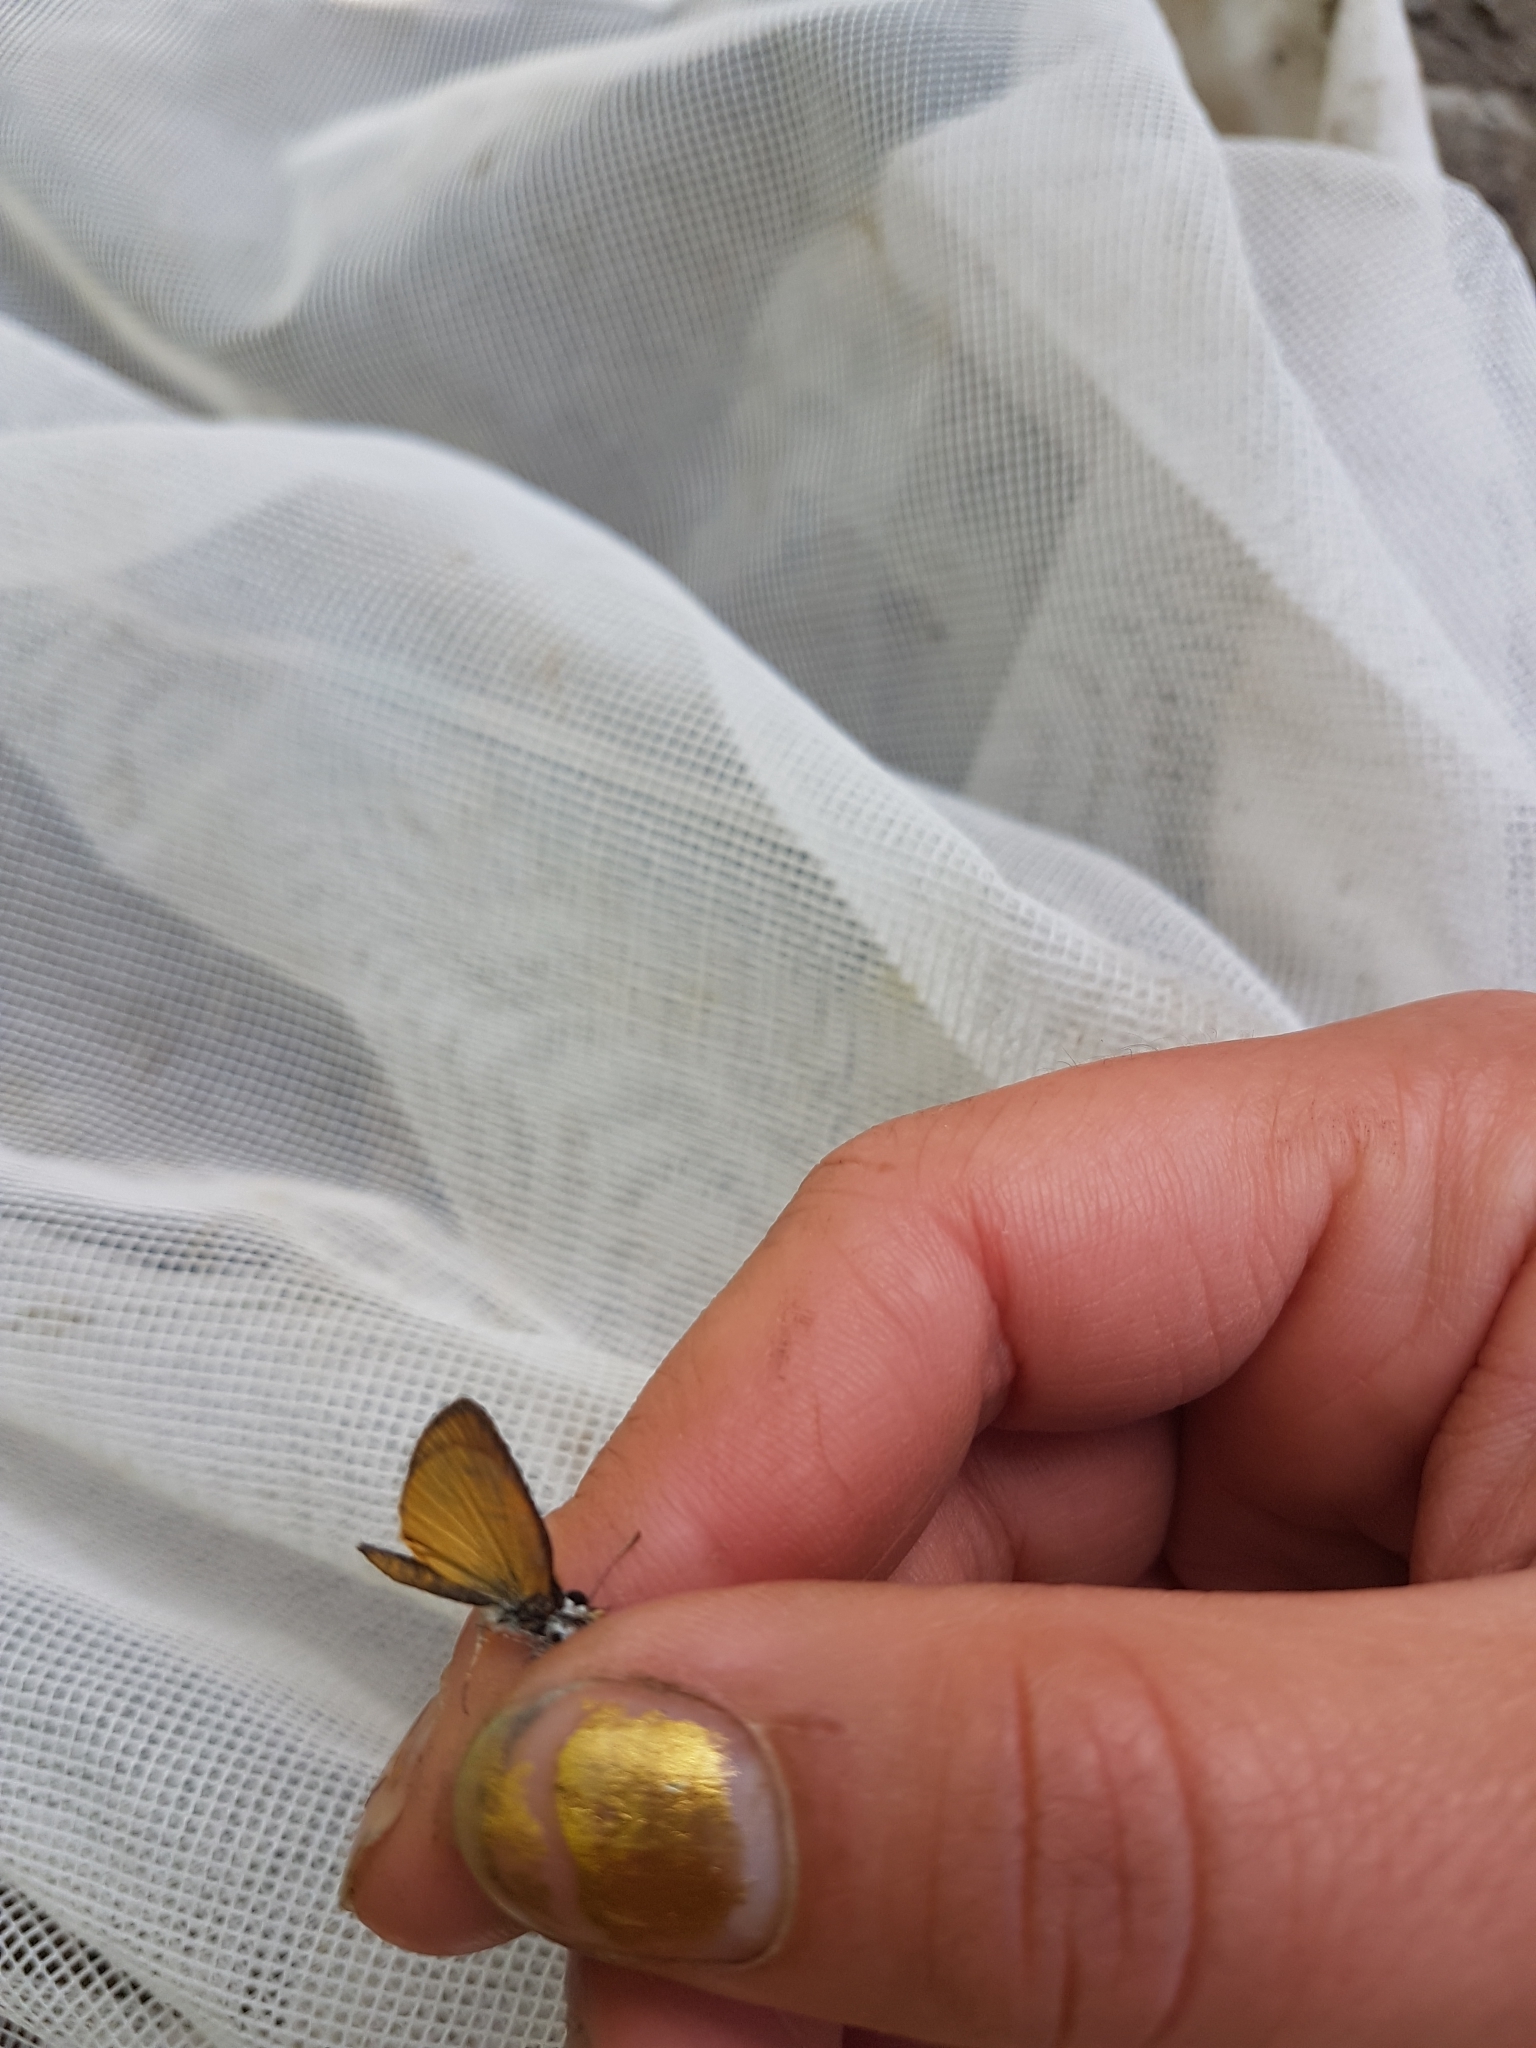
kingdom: Animalia
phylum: Arthropoda
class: Insecta
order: Lepidoptera
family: Hesperiidae
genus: Ancyloxypha
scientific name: Ancyloxypha numitor
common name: Least skipper
